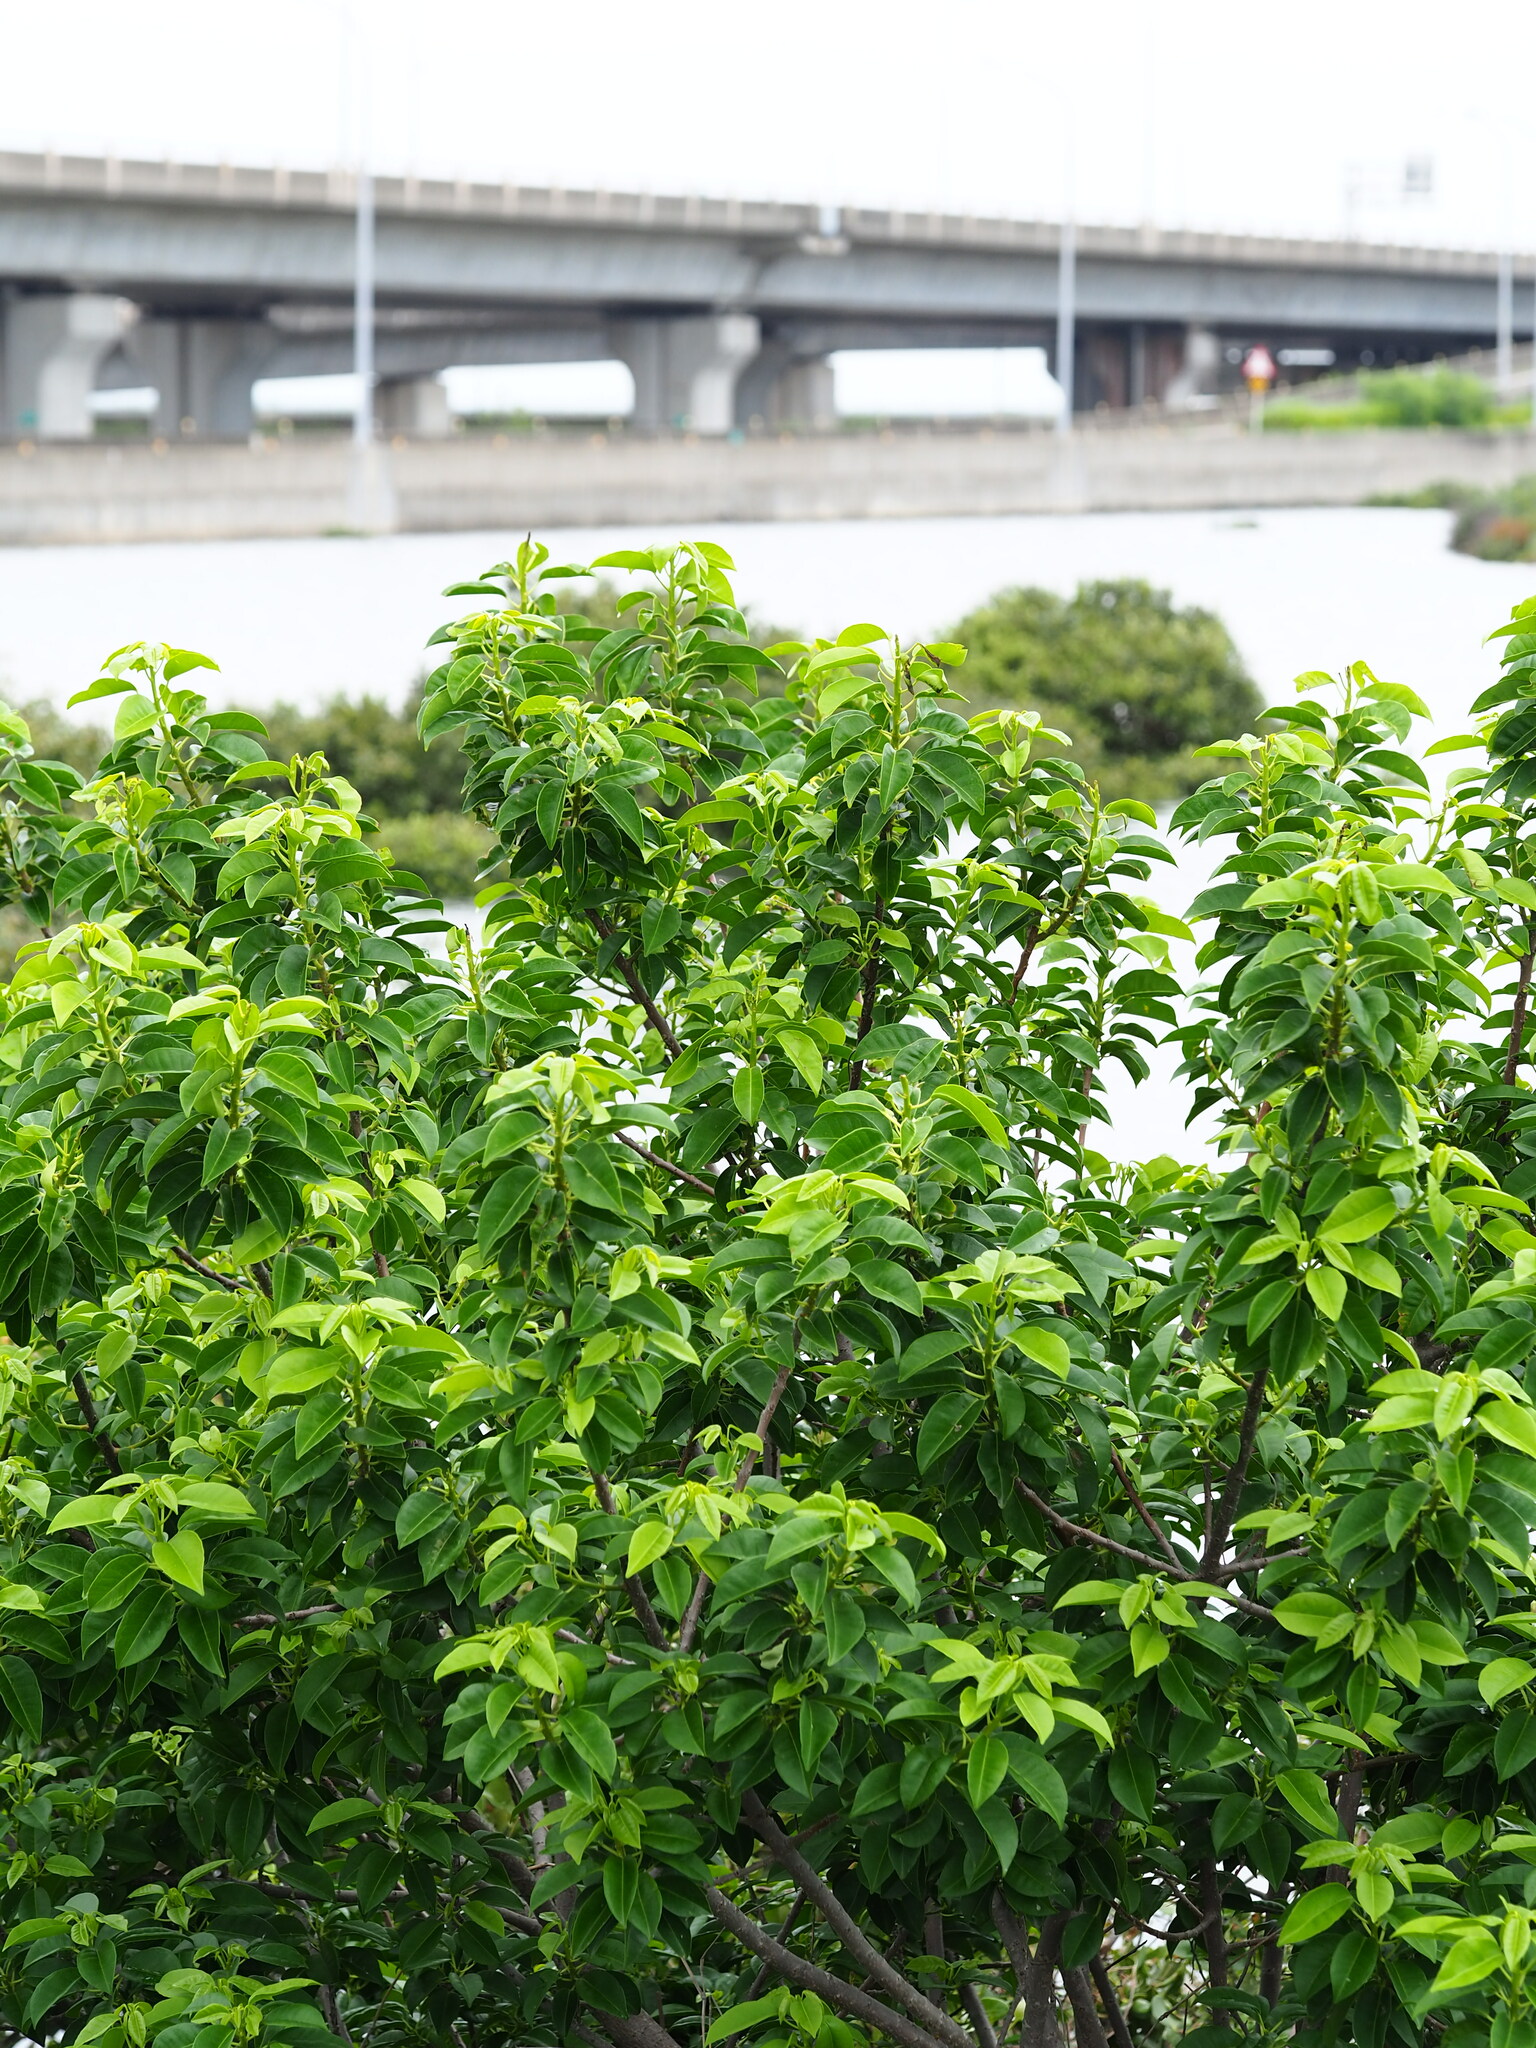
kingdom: Plantae
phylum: Tracheophyta
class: Magnoliopsida
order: Malpighiales
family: Euphorbiaceae
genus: Excoecaria
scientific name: Excoecaria agallocha
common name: River poisontree
